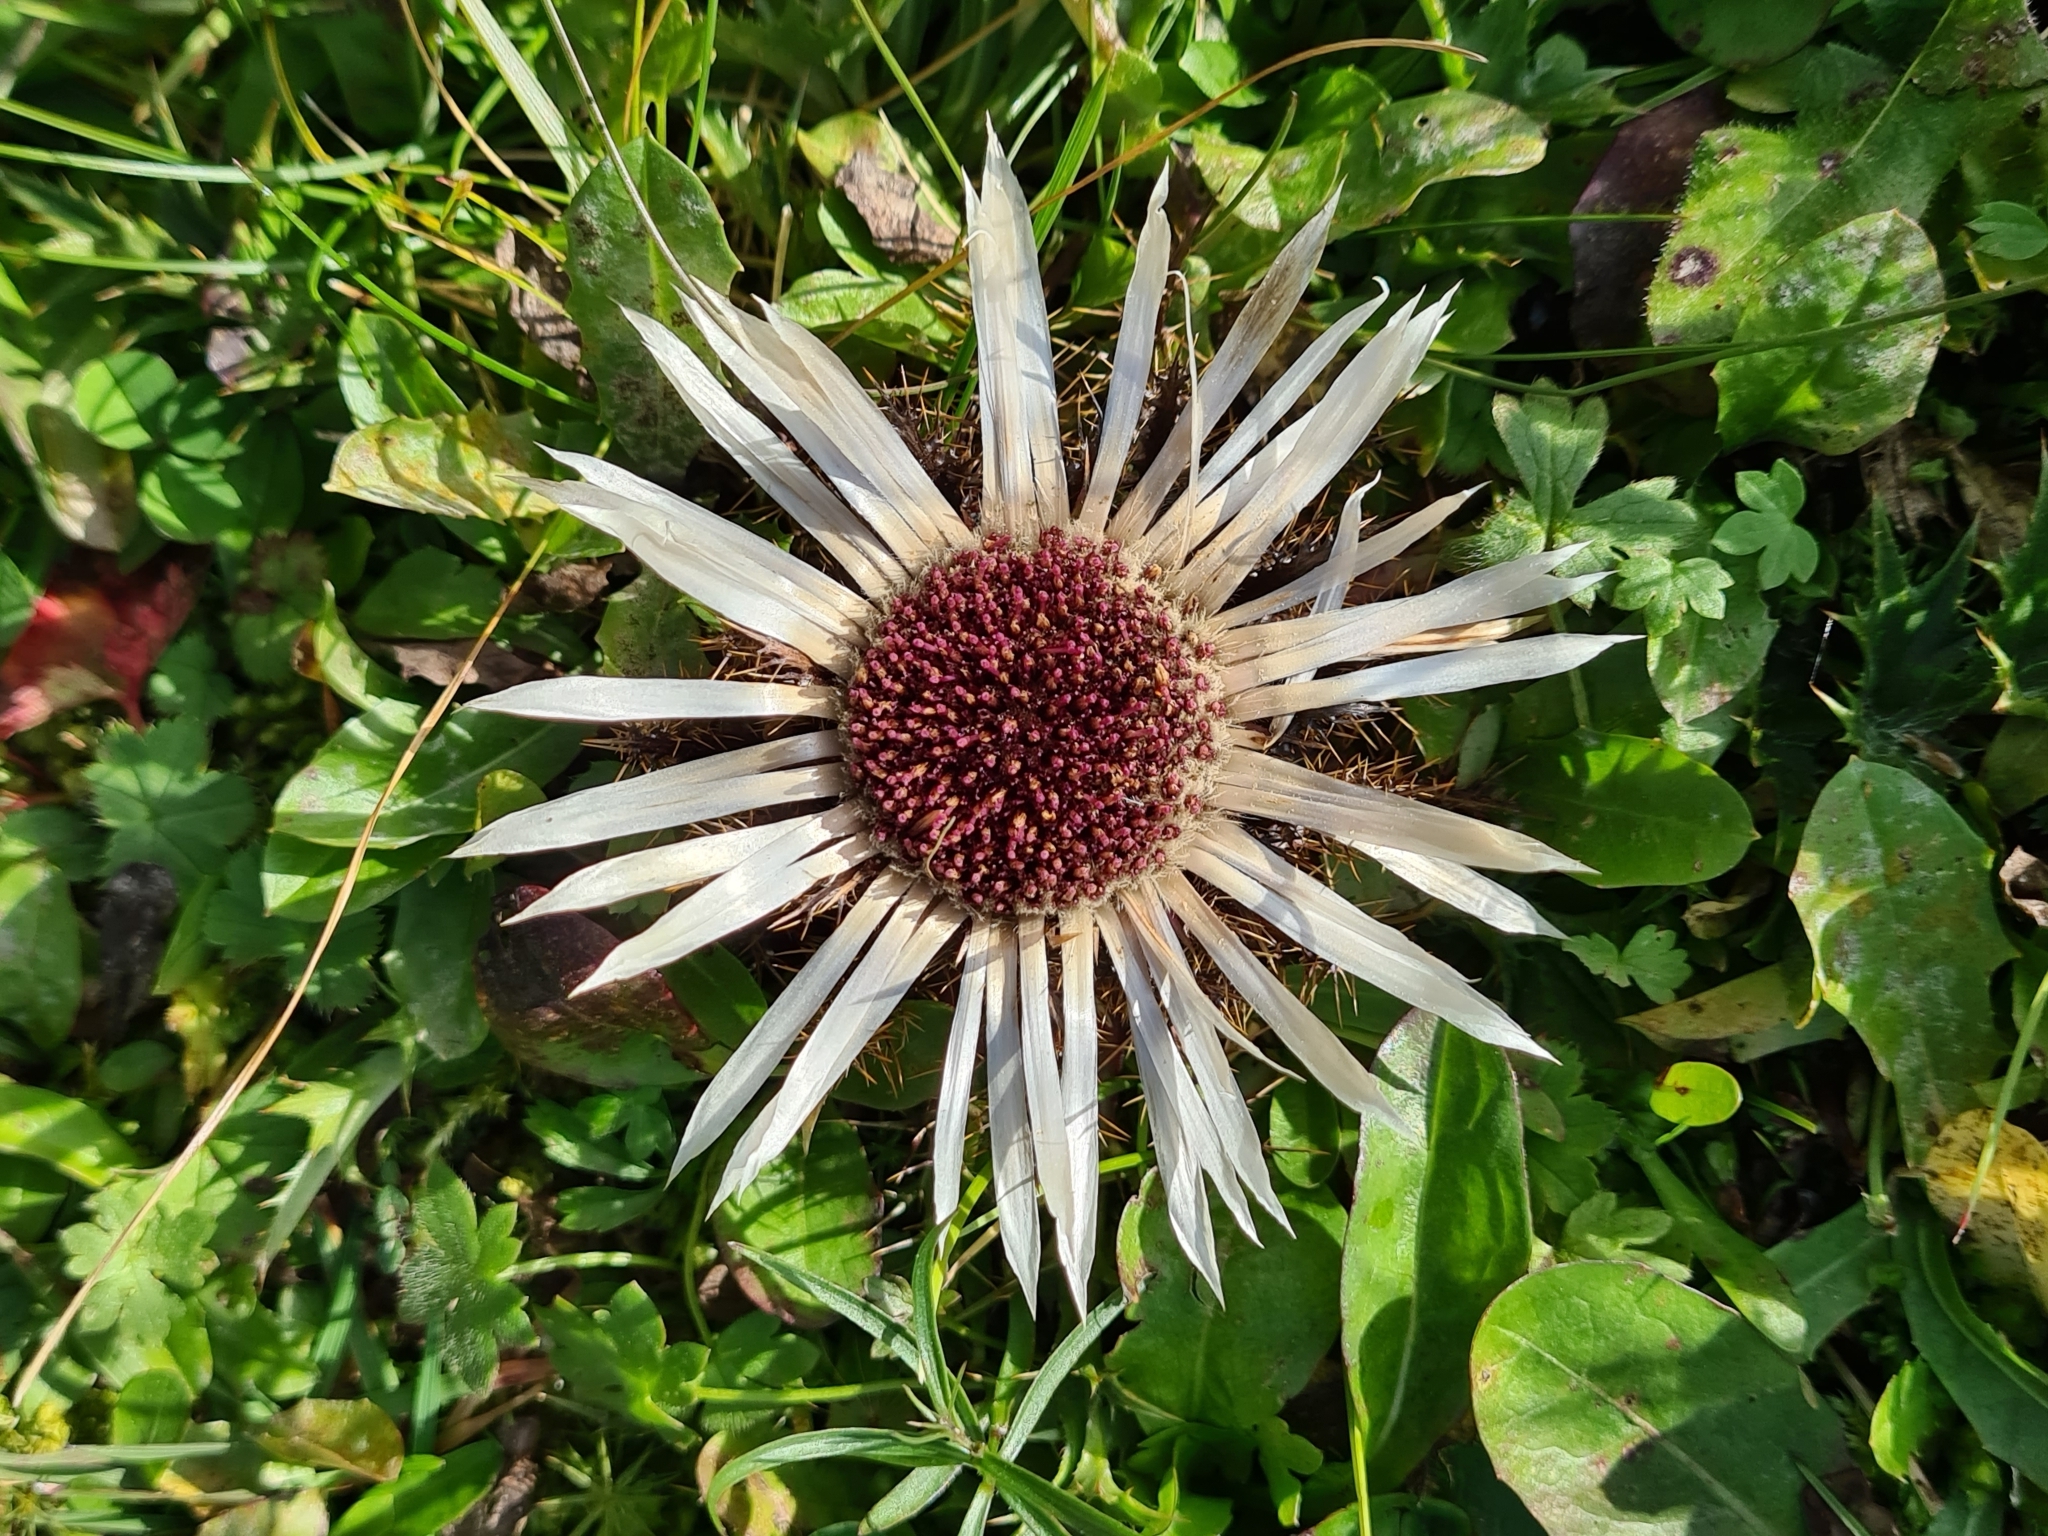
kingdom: Plantae
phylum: Tracheophyta
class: Magnoliopsida
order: Asterales
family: Asteraceae
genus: Carlina
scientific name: Carlina acaulis
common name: Stemless carline thistle
